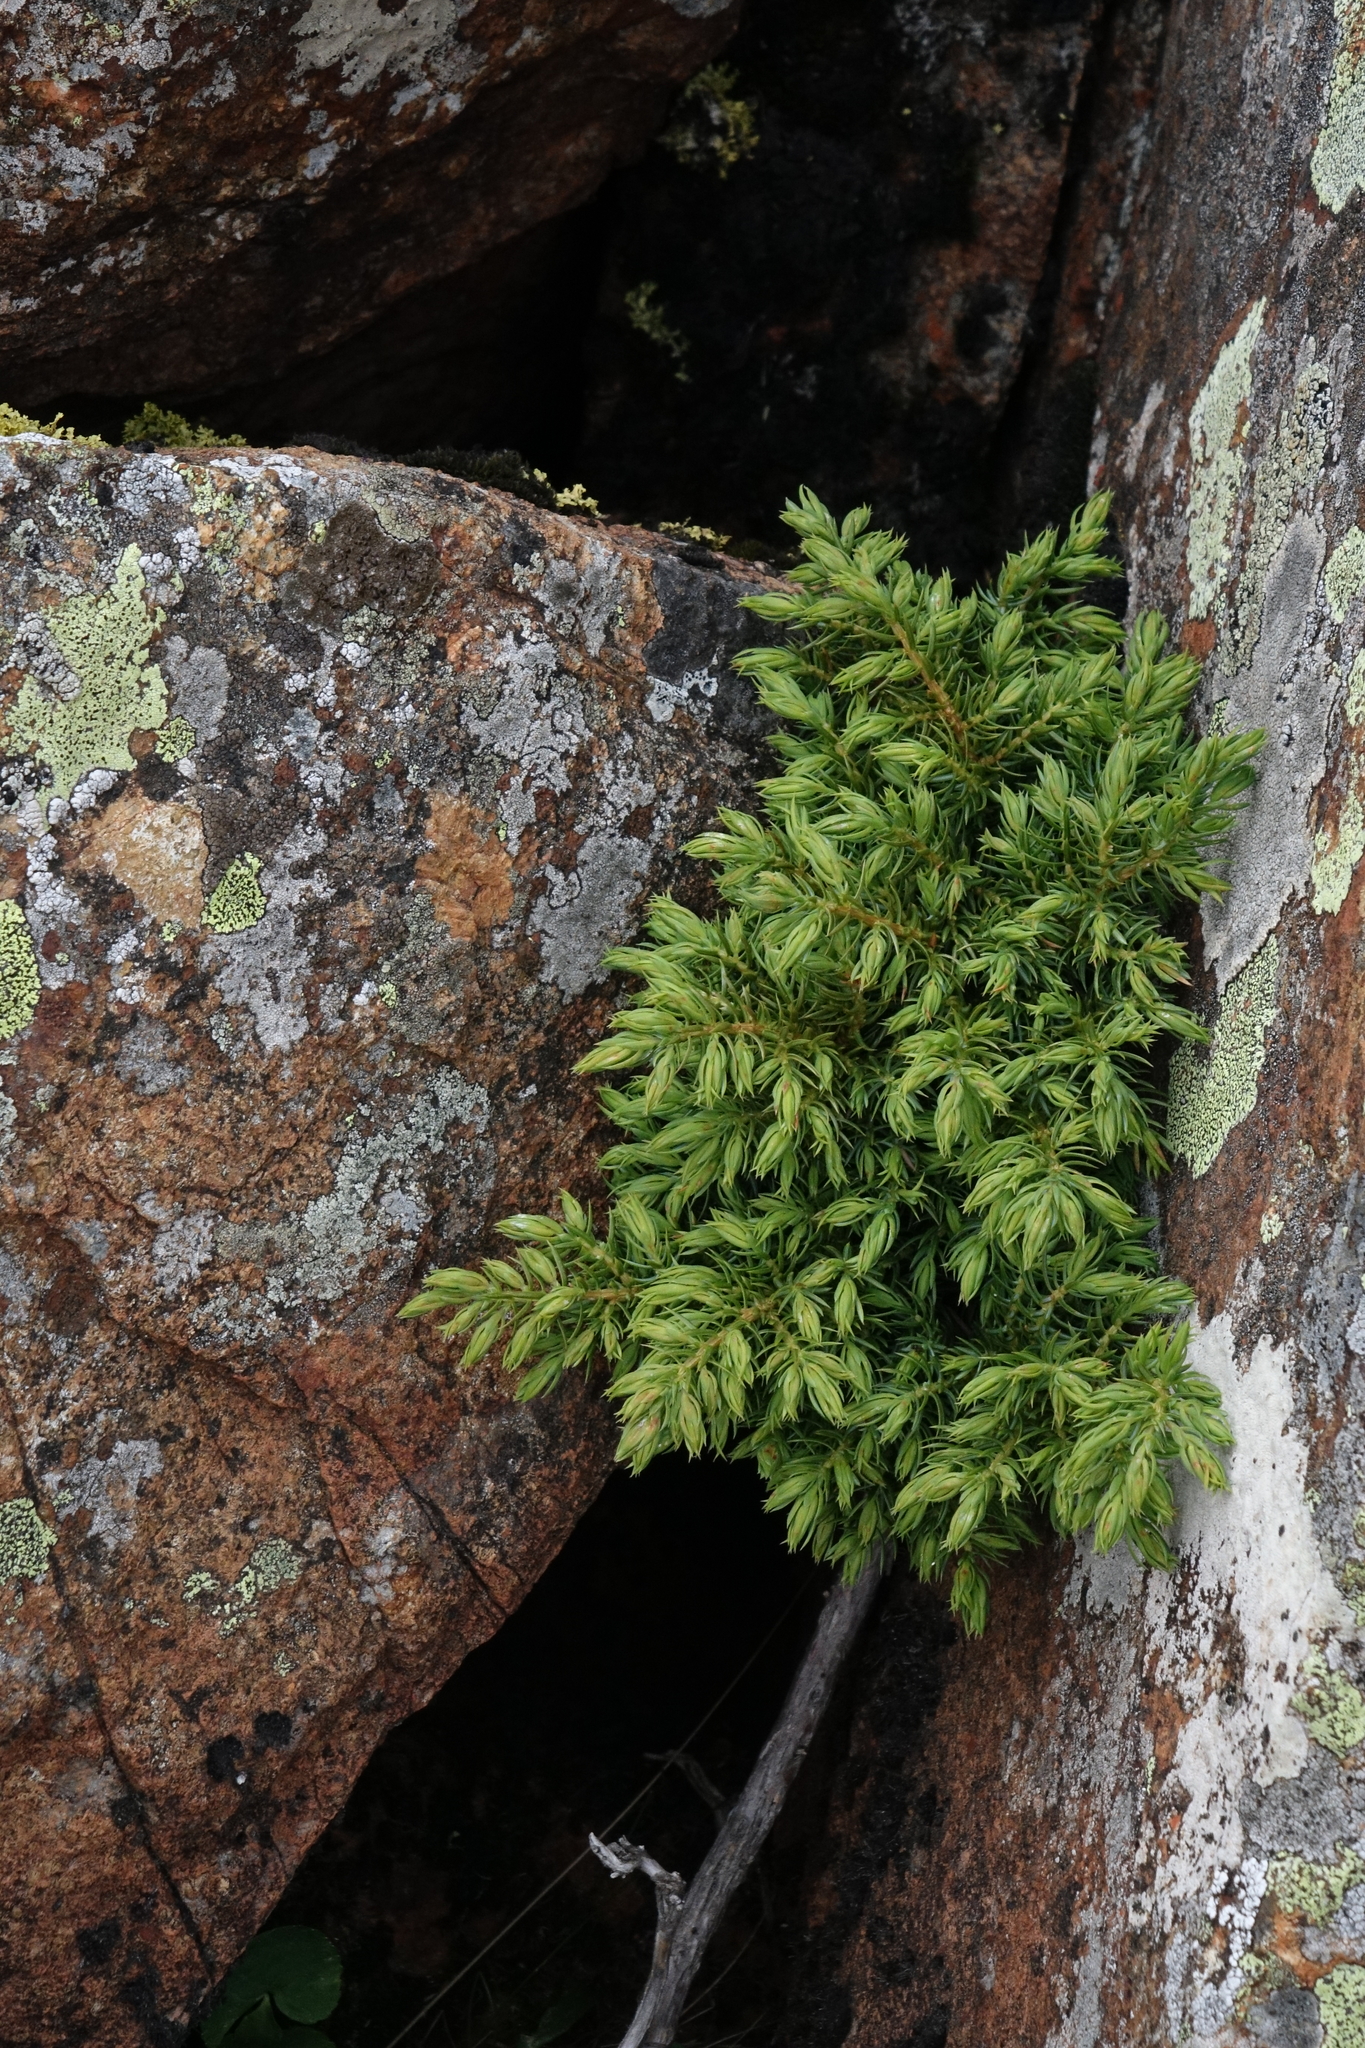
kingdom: Plantae
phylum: Tracheophyta
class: Pinopsida
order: Pinales
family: Cupressaceae
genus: Juniperus
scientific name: Juniperus communis
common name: Common juniper
